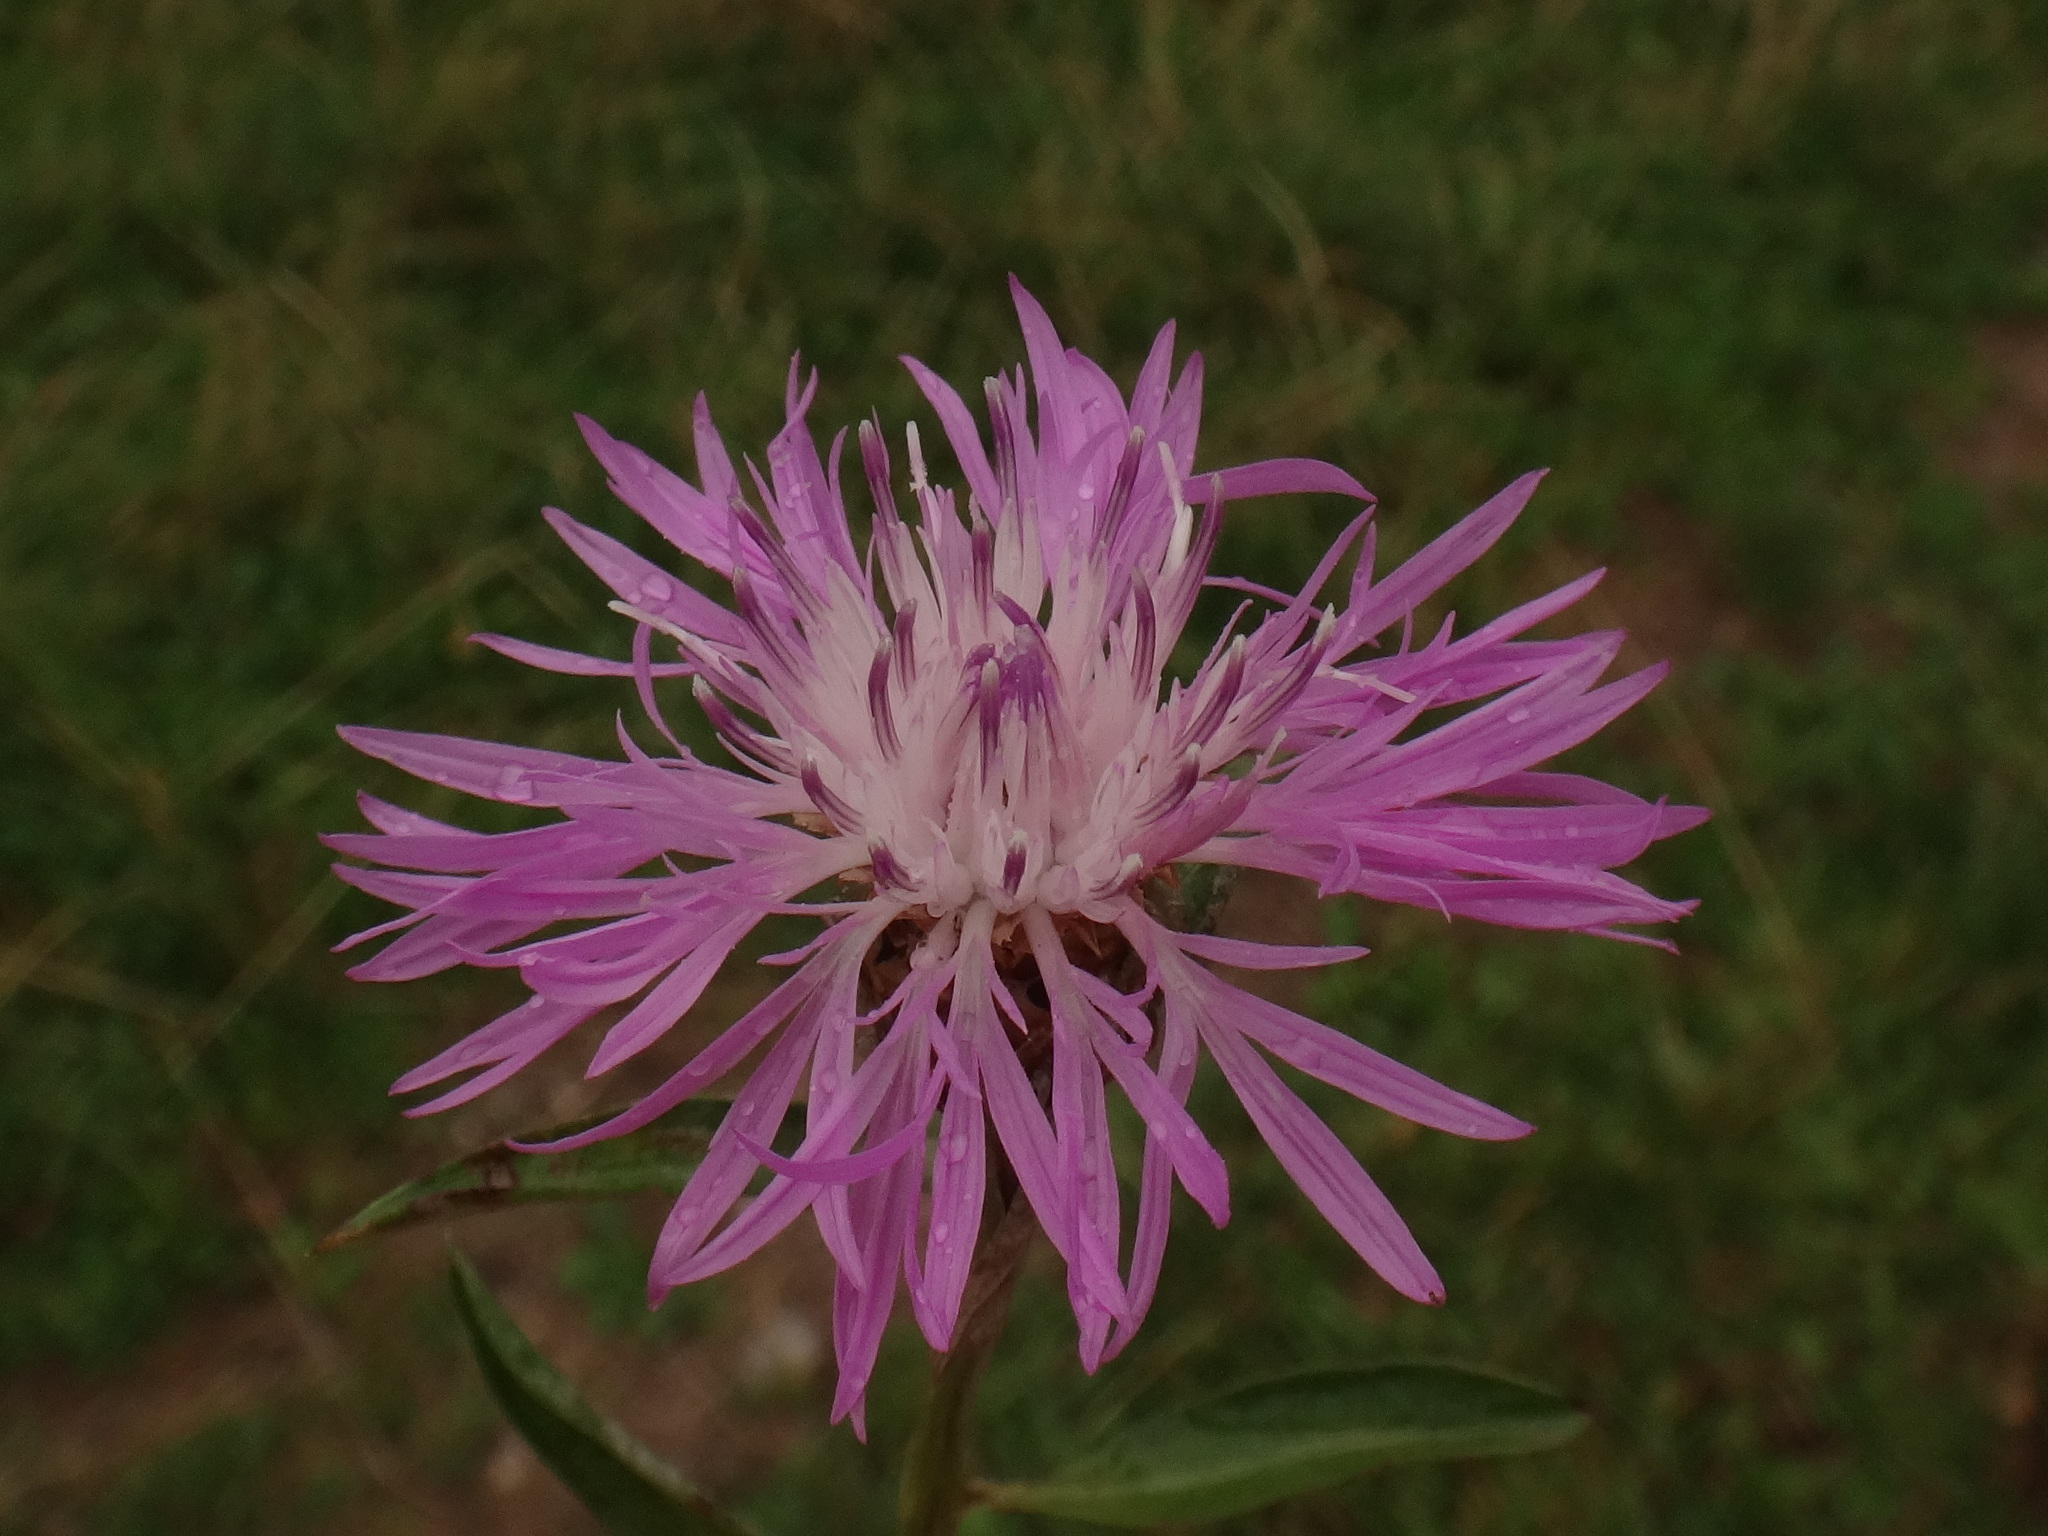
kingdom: Plantae
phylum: Tracheophyta
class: Magnoliopsida
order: Asterales
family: Asteraceae
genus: Centaurea
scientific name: Centaurea jacea
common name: Brown knapweed
